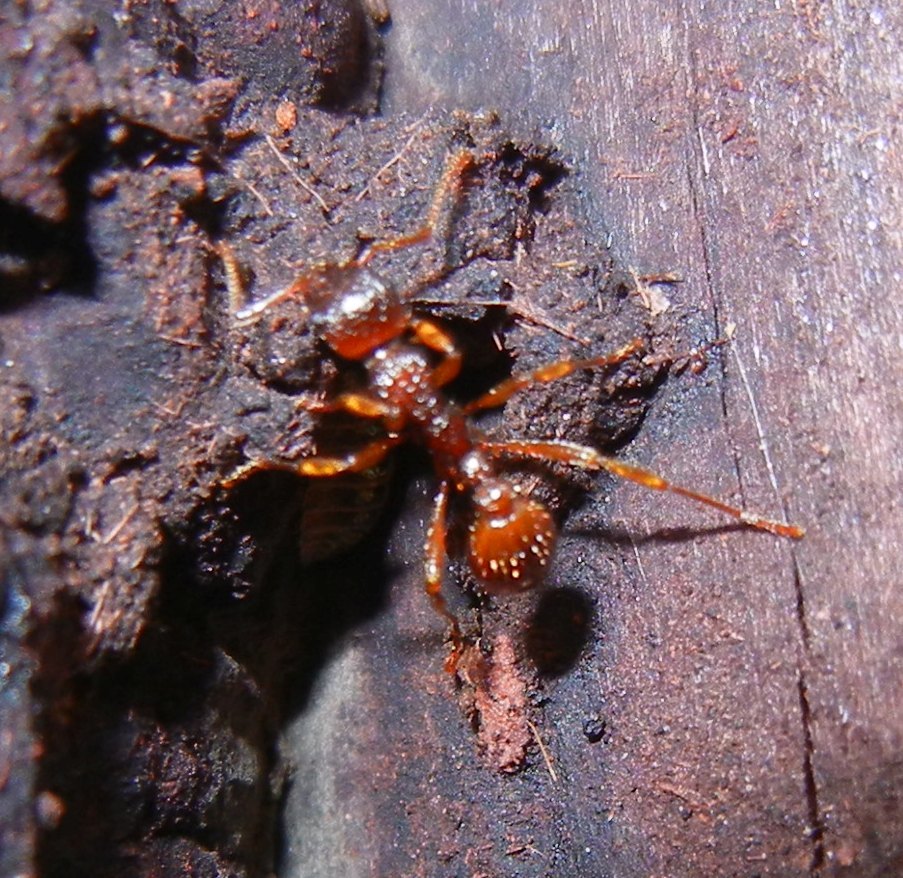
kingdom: Animalia
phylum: Arthropoda
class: Insecta
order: Hymenoptera
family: Formicidae
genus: Myrmica
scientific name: Myrmica ruginodis
